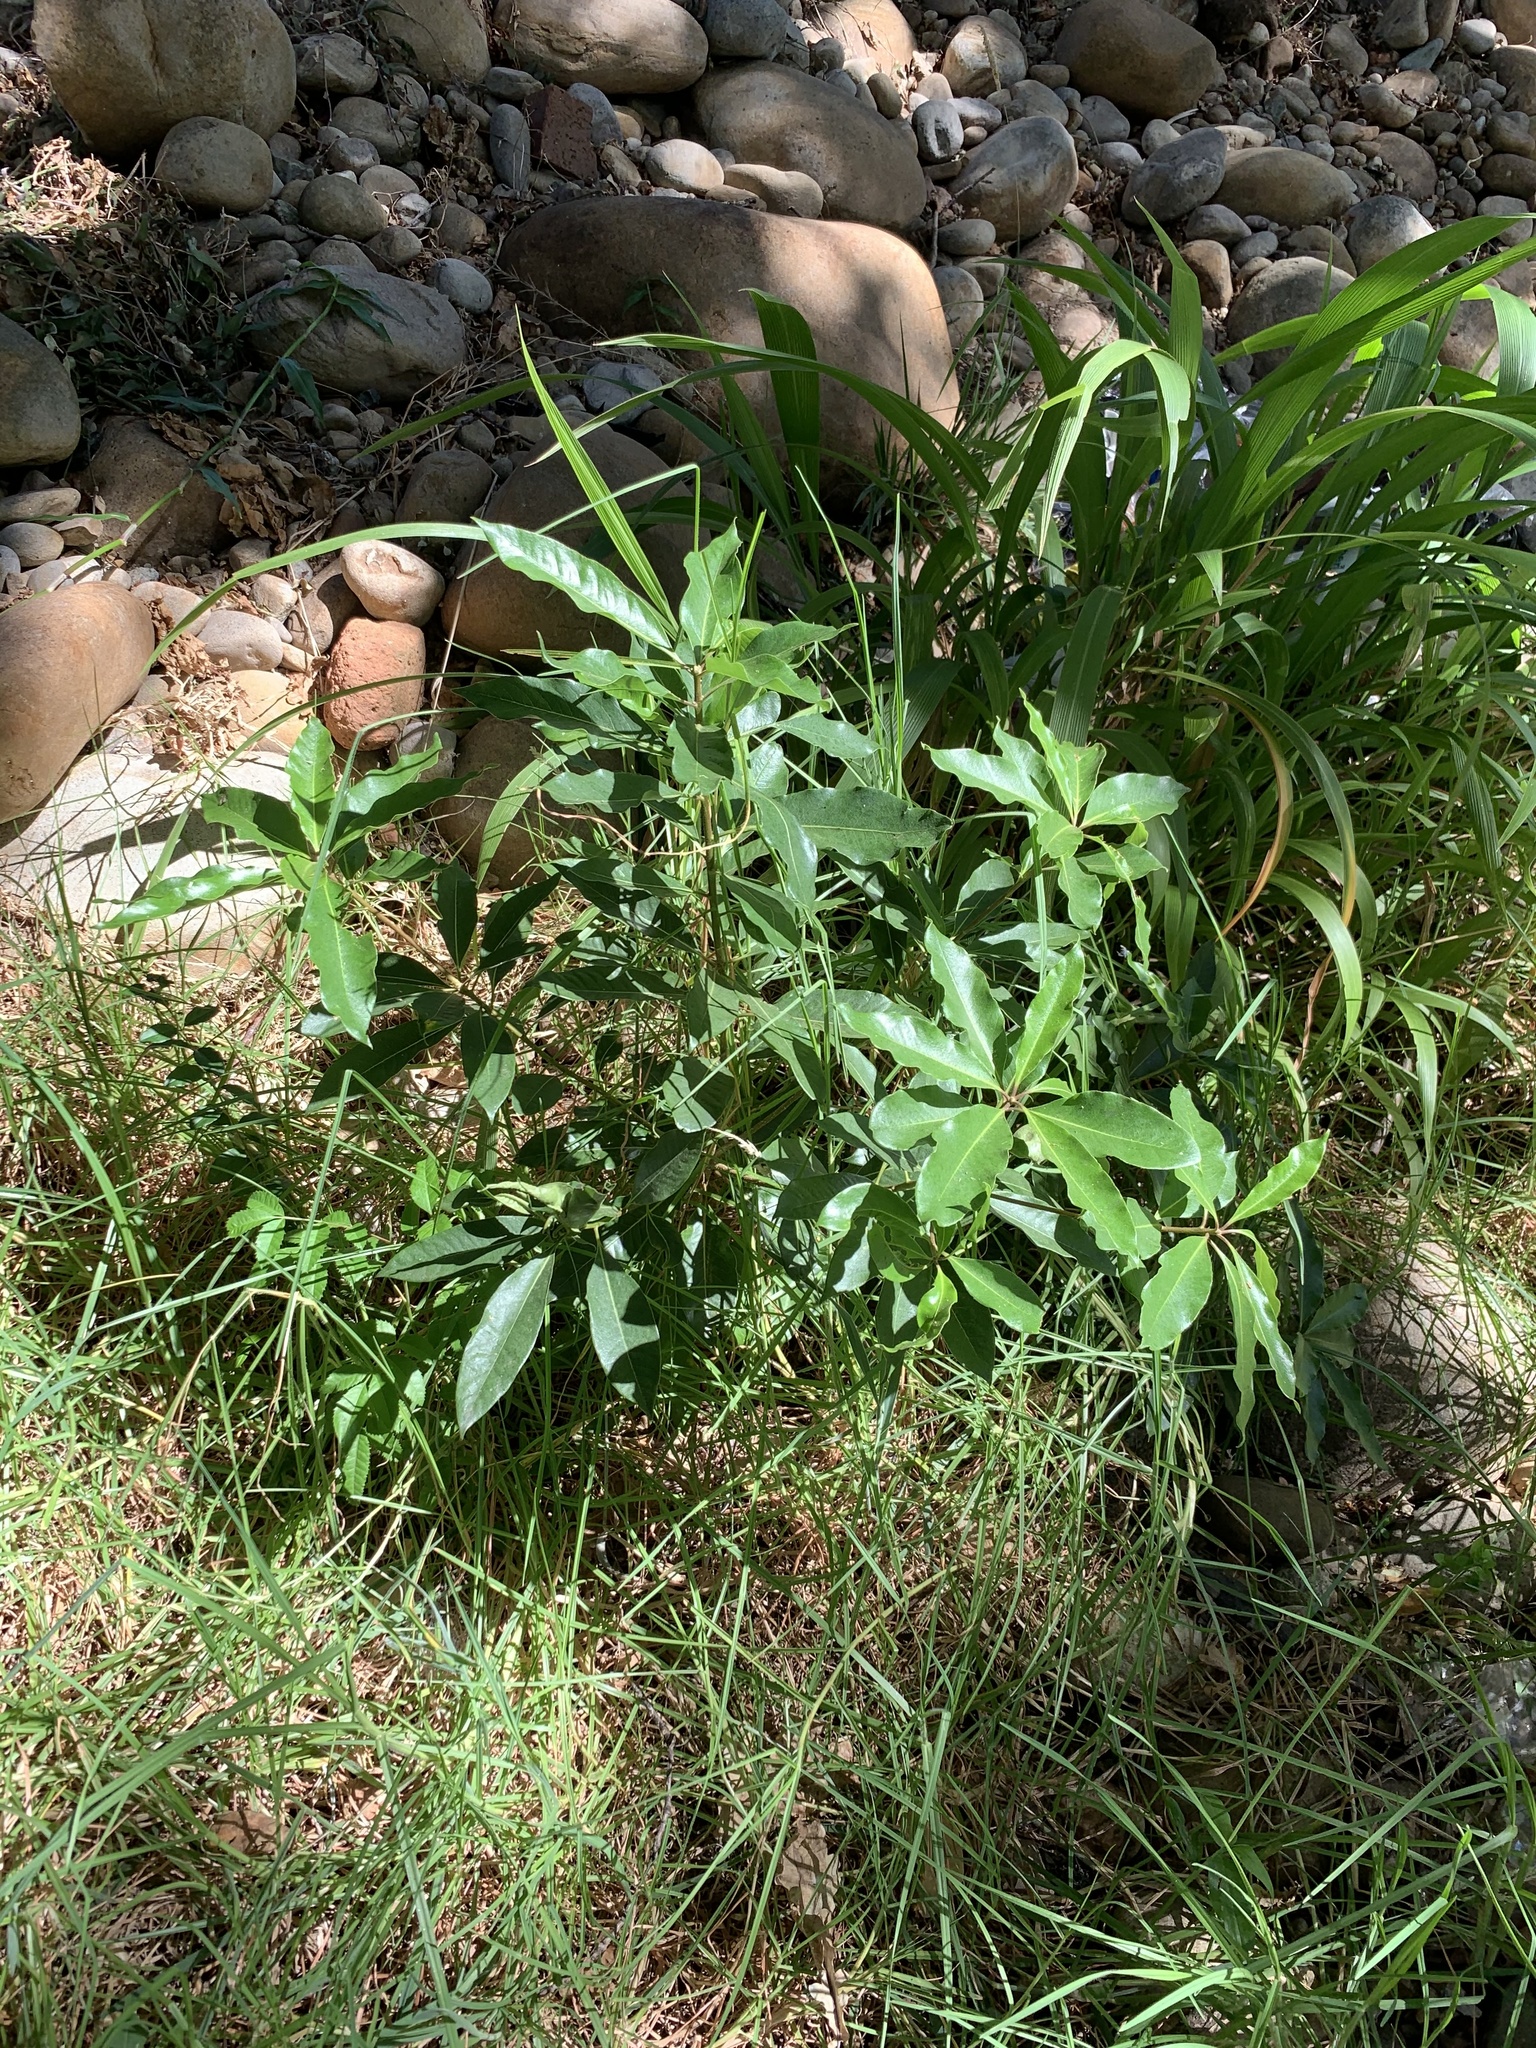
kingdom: Plantae
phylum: Tracheophyta
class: Magnoliopsida
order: Apiales
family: Pittosporaceae
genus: Pittosporum
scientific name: Pittosporum undulatum
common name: Australian cheesewood
